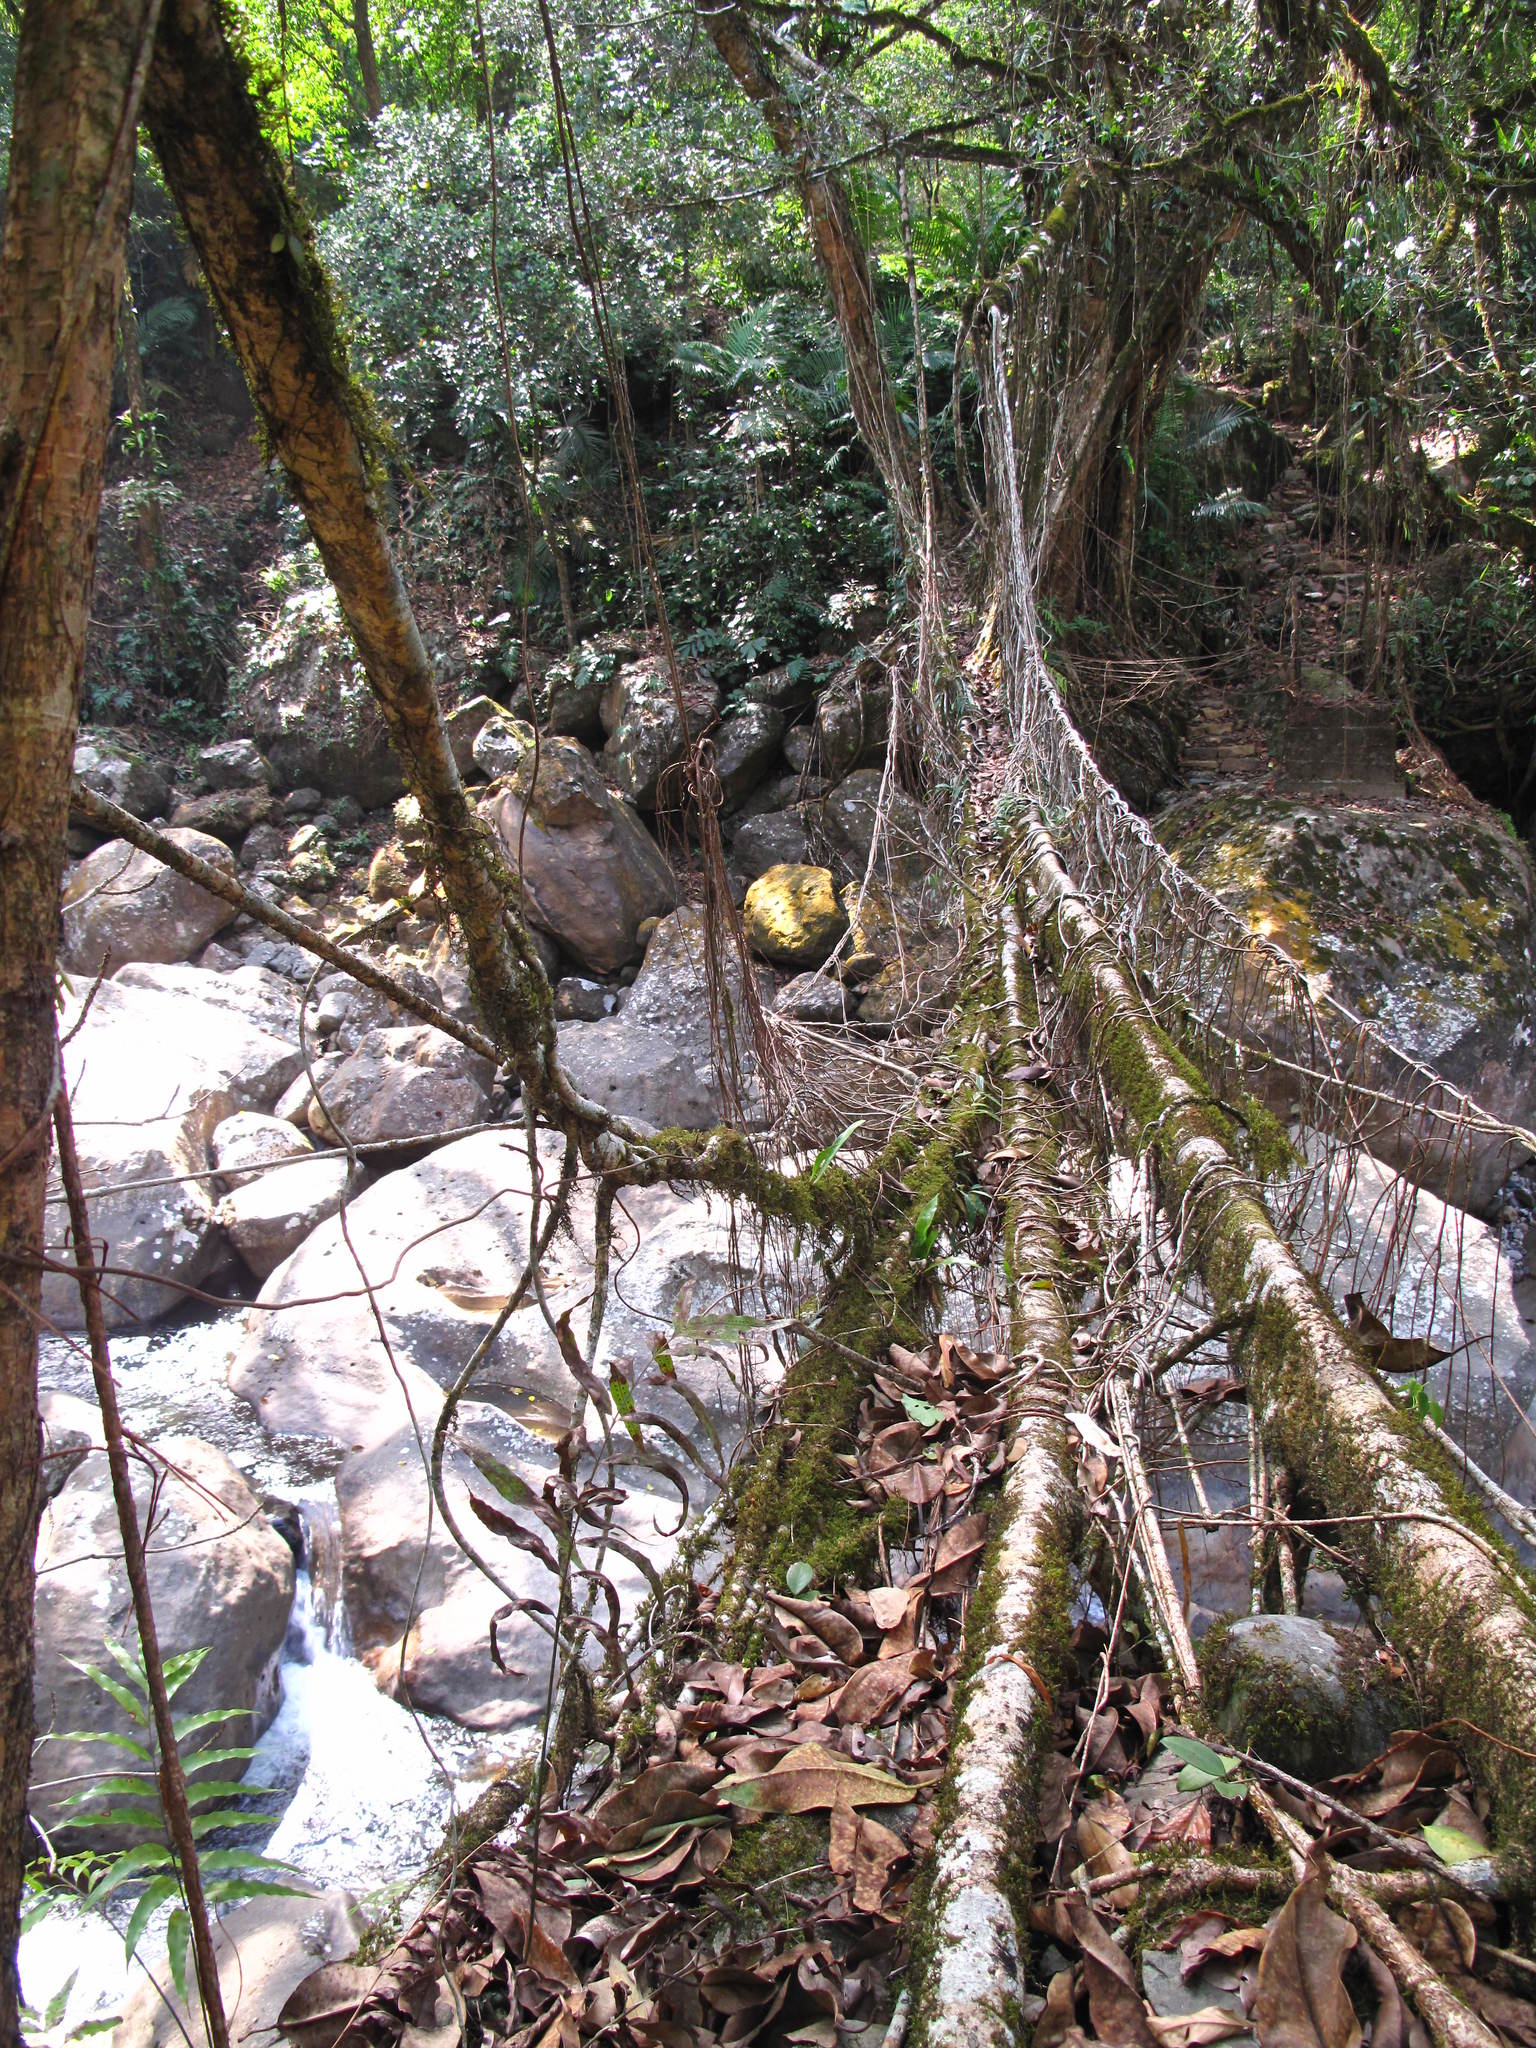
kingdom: Plantae
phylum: Tracheophyta
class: Magnoliopsida
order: Rosales
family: Moraceae
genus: Ficus
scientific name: Ficus elastica
